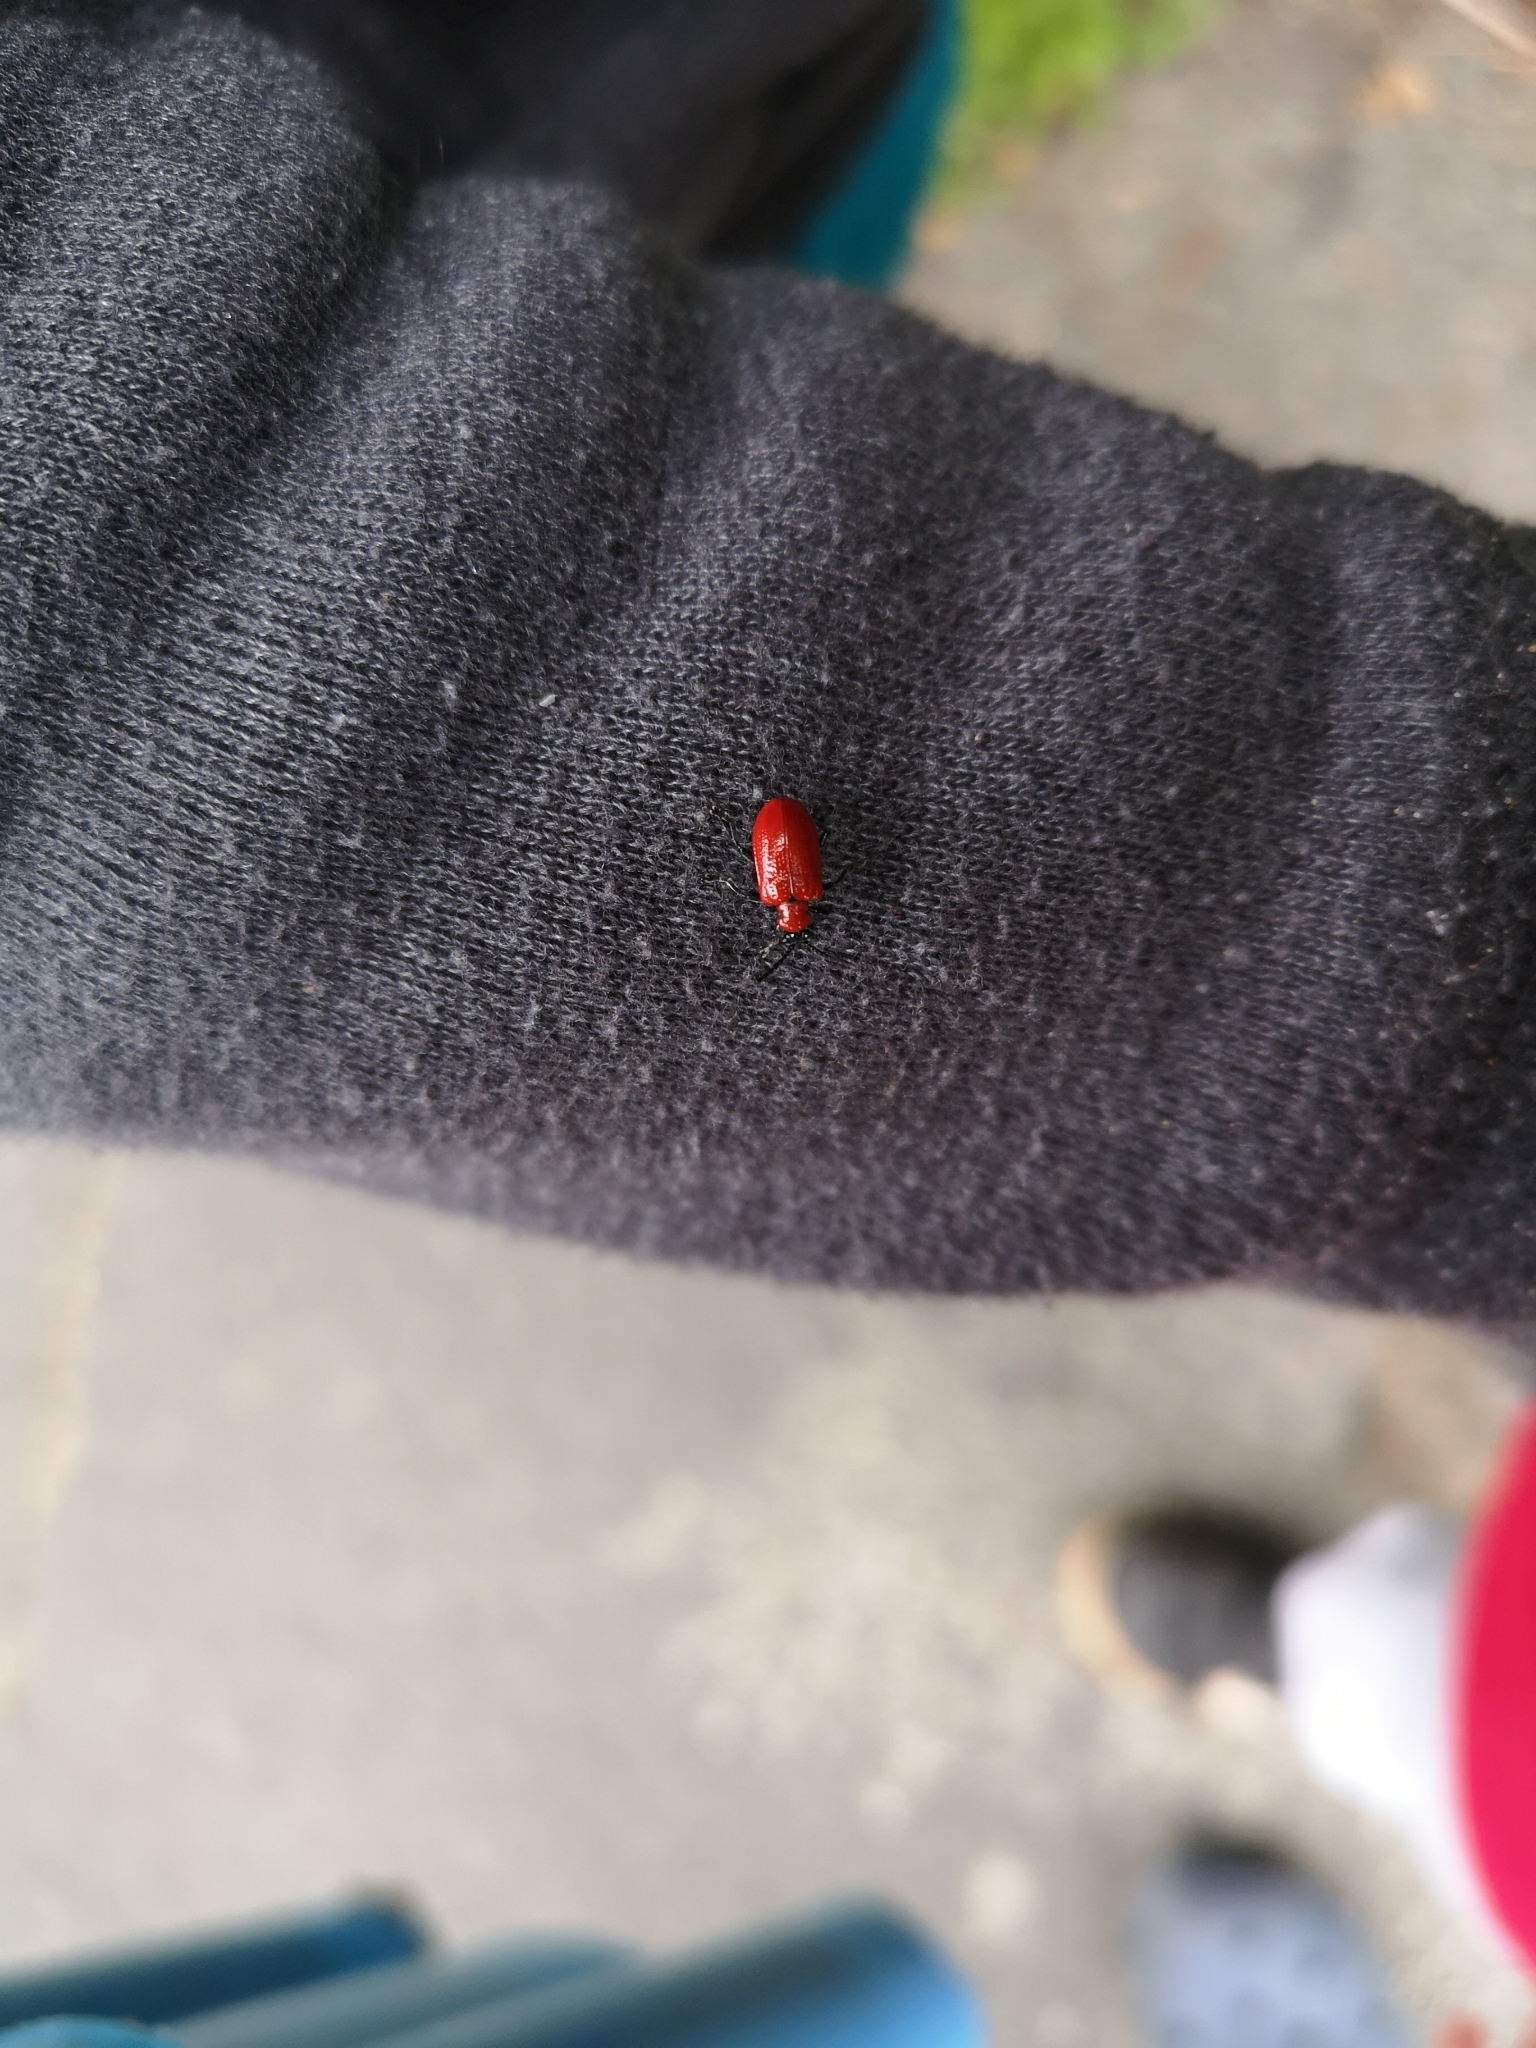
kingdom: Animalia
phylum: Arthropoda
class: Insecta
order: Coleoptera
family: Chrysomelidae
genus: Lilioceris
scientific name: Lilioceris lilii
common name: Lily beetle
